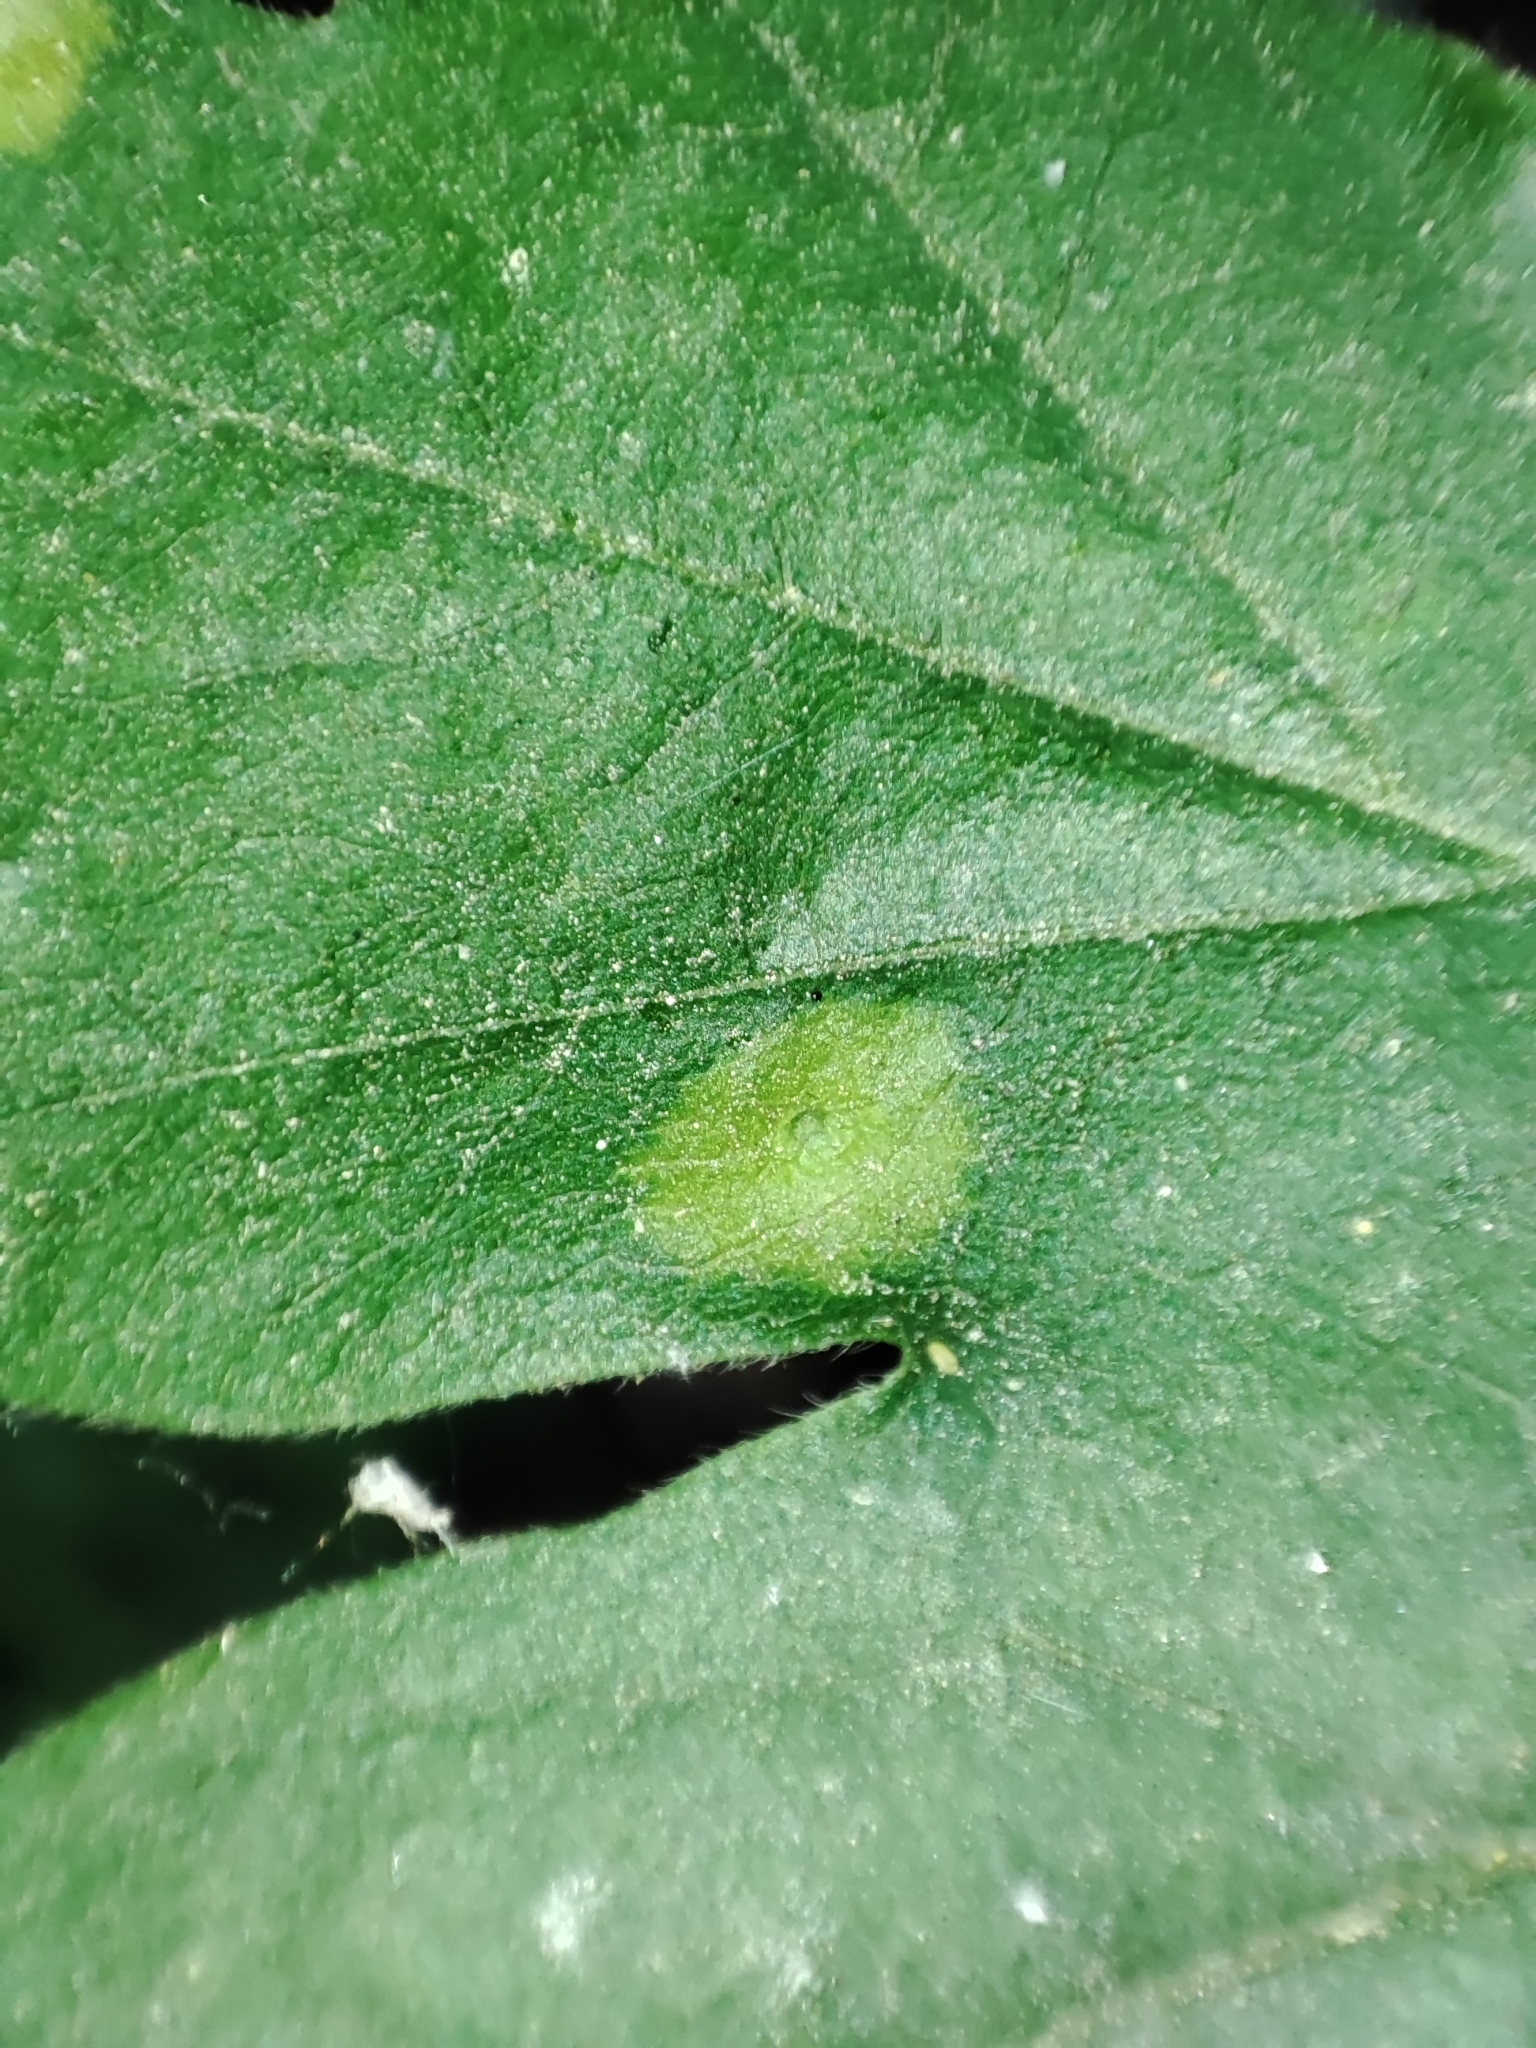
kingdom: Animalia
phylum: Arthropoda
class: Insecta
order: Diptera
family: Cecidomyiidae
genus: Acericecis
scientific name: Acericecis campestre
